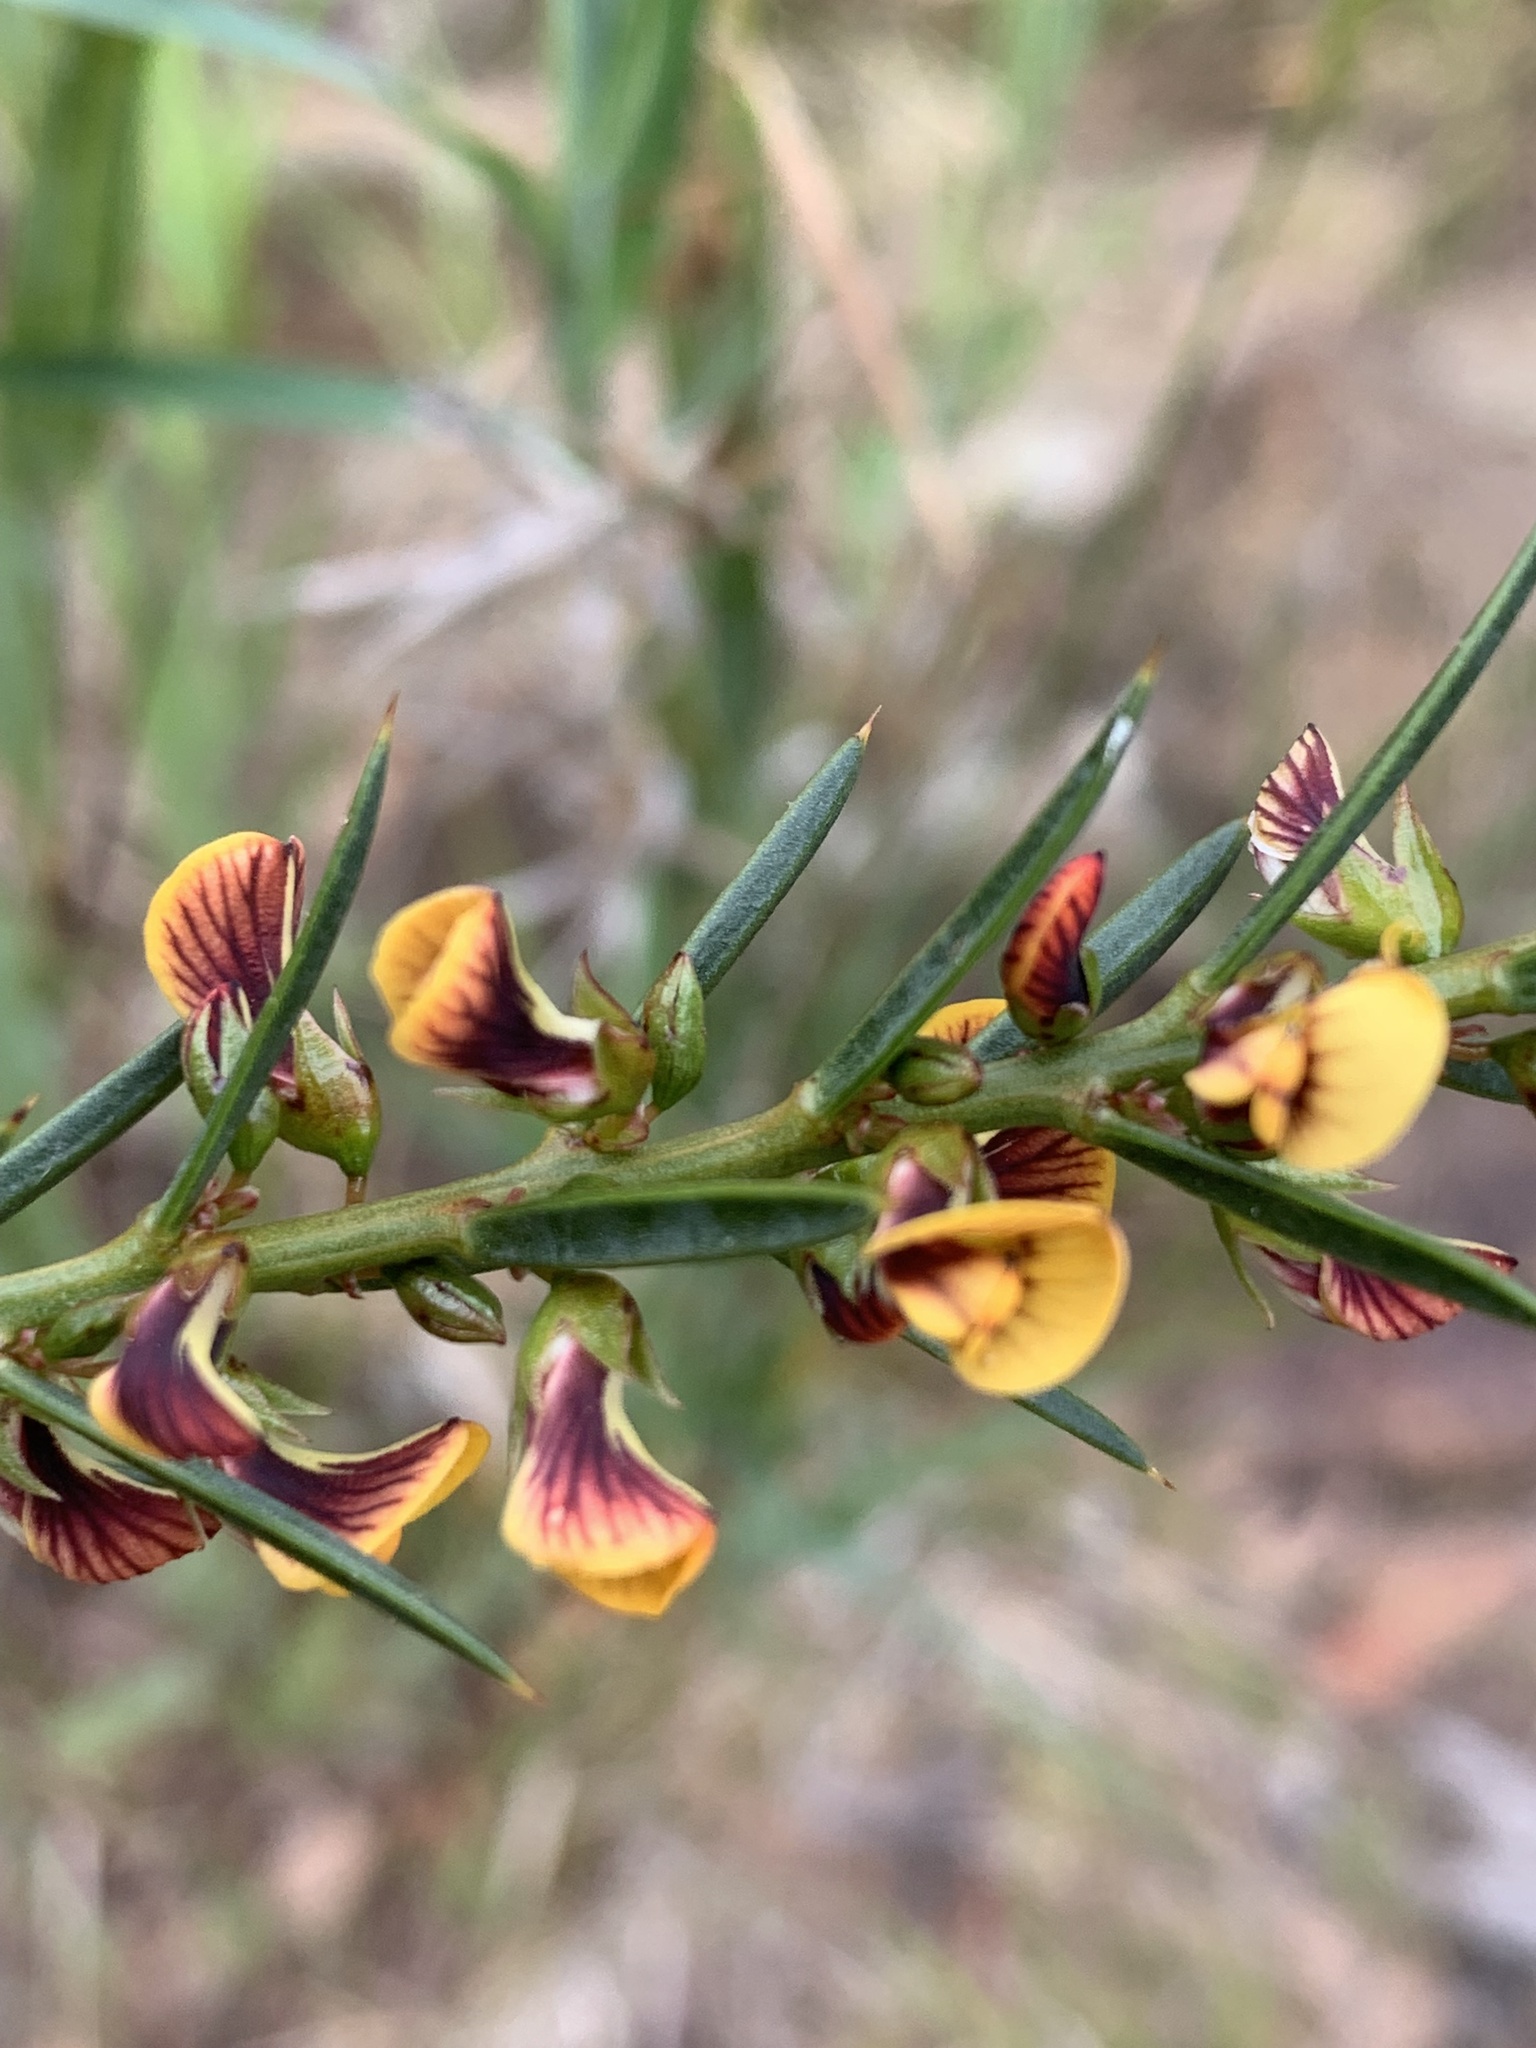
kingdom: Plantae
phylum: Tracheophyta
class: Magnoliopsida
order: Fabales
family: Fabaceae
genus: Daviesia
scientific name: Daviesia acicularis
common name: Sandplain bitter-pea
